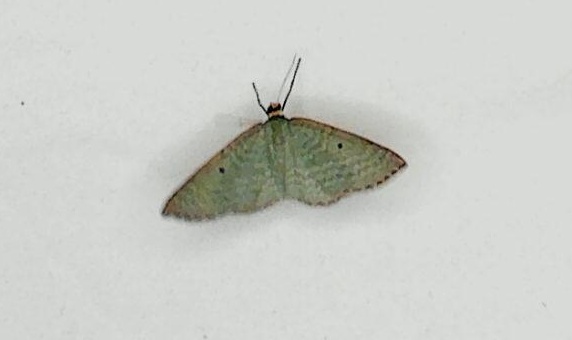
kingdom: Animalia
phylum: Arthropoda
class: Insecta
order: Lepidoptera
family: Geometridae
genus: Poecilasthena
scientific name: Poecilasthena balioloma
